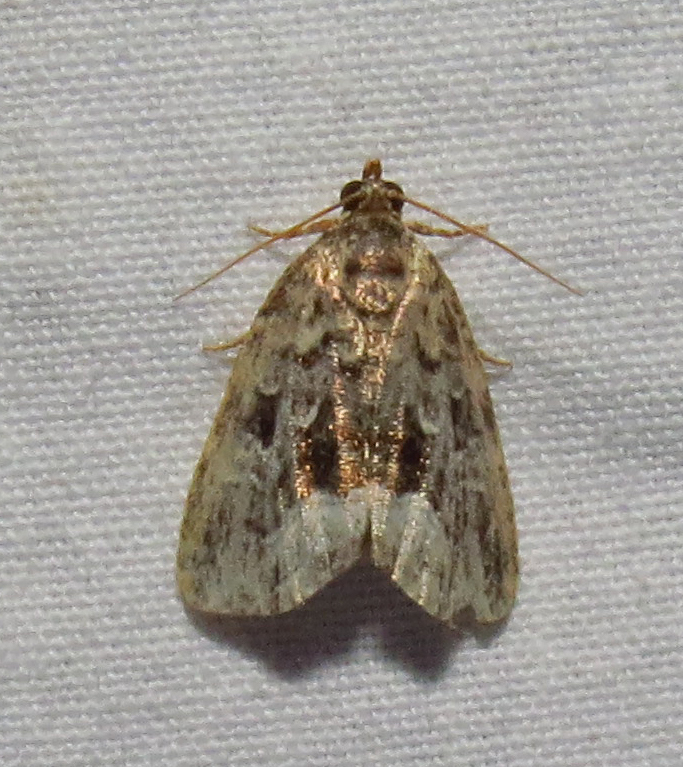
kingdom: Animalia
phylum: Arthropoda
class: Insecta
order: Lepidoptera
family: Noctuidae
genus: Protodeltote
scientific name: Protodeltote muscosula
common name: Large mossy glyph
